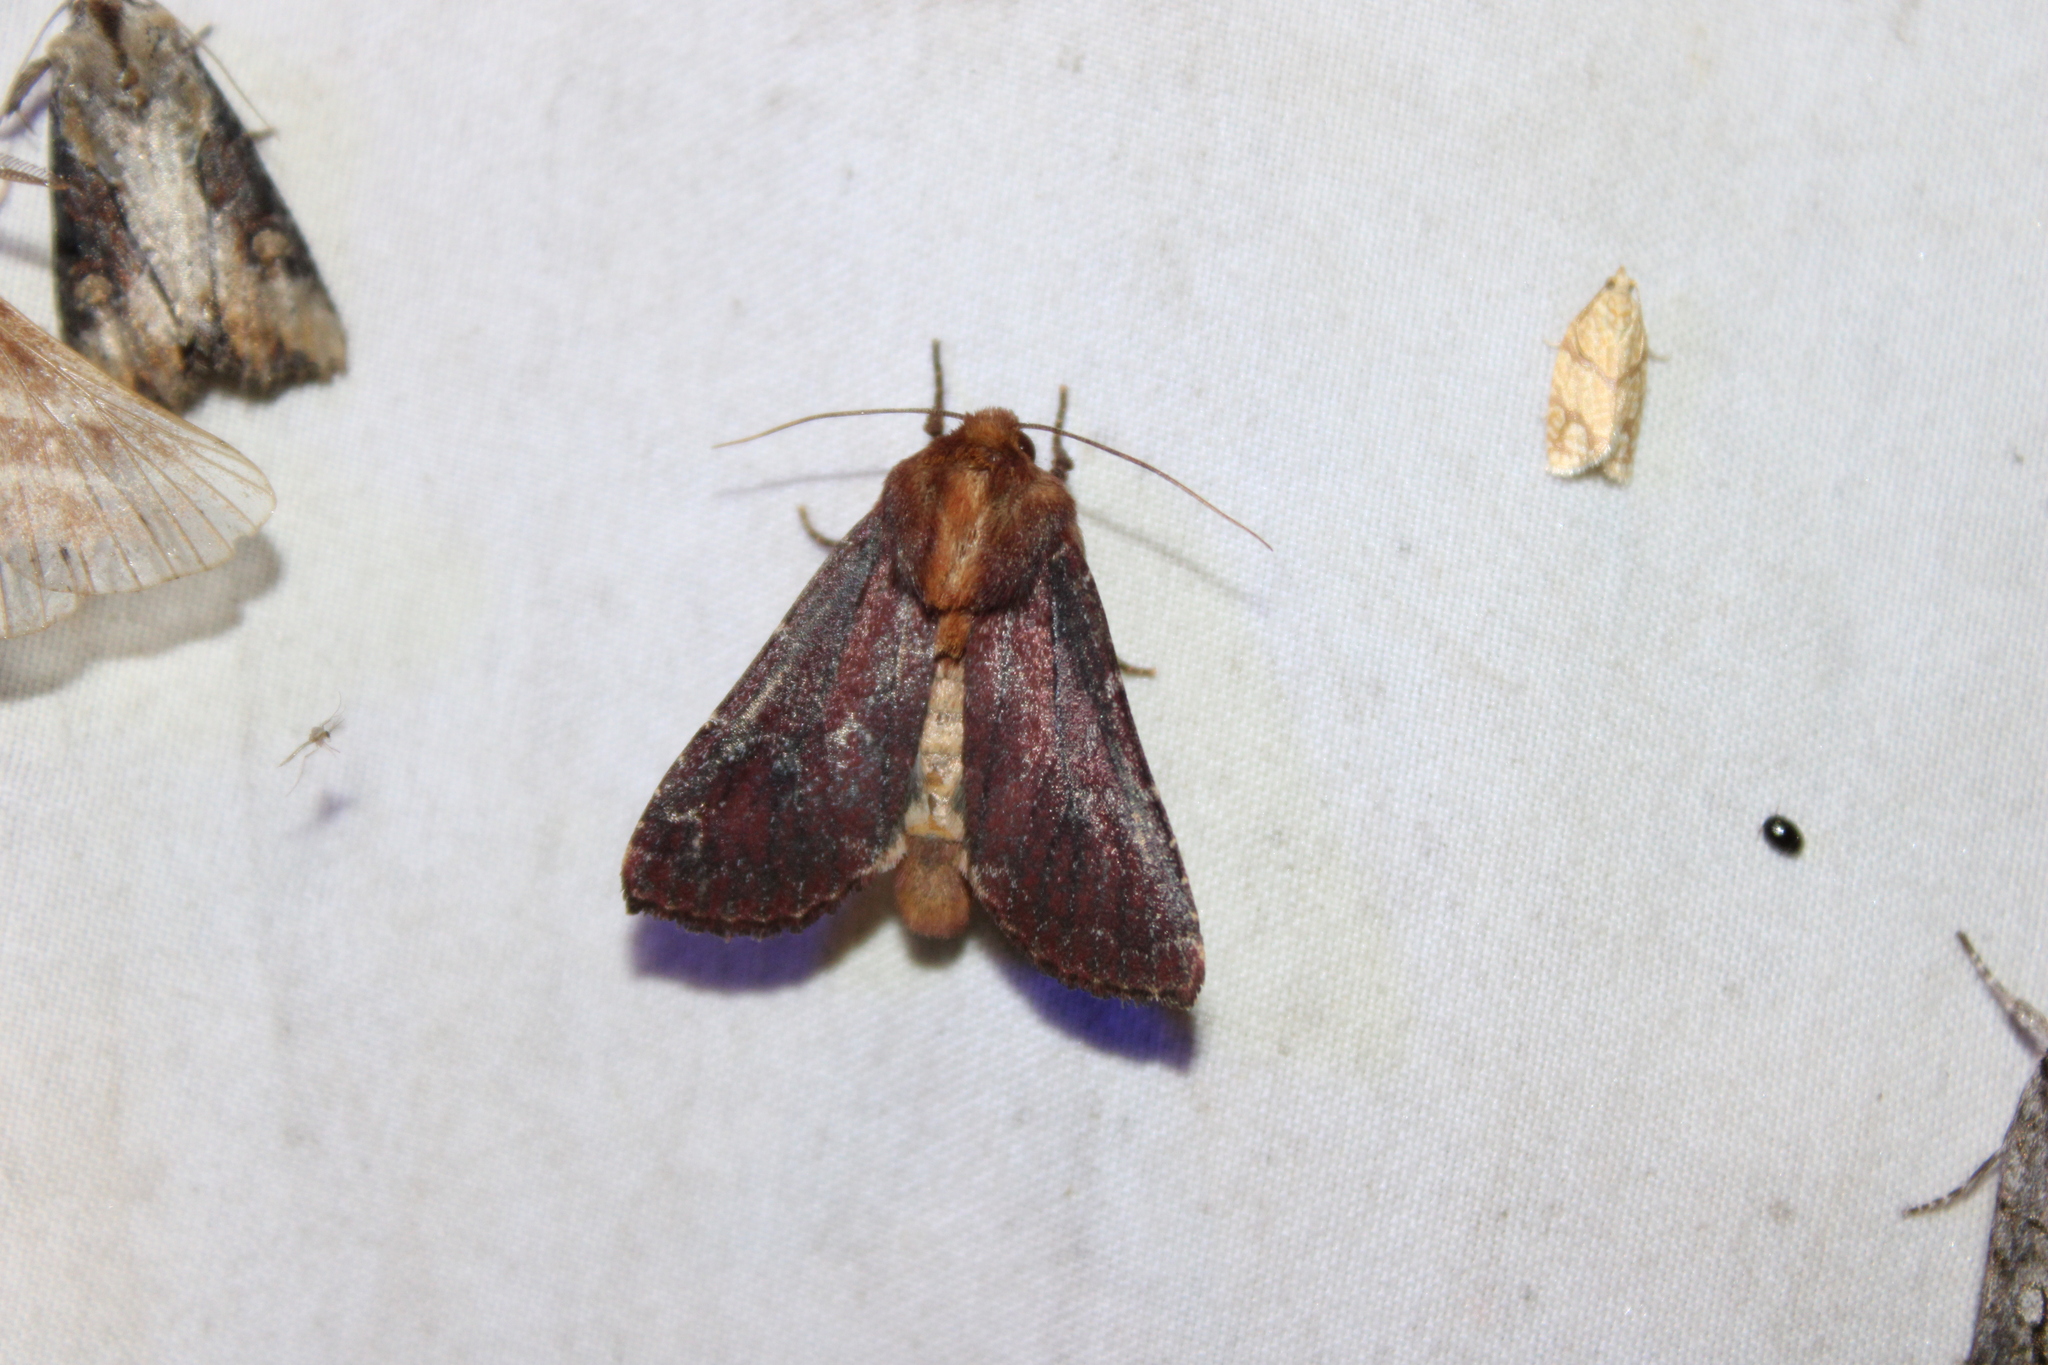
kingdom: Animalia
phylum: Arthropoda
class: Insecta
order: Lepidoptera
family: Noctuidae
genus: Sideridis
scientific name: Sideridis maryx
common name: Maroonwing moth
